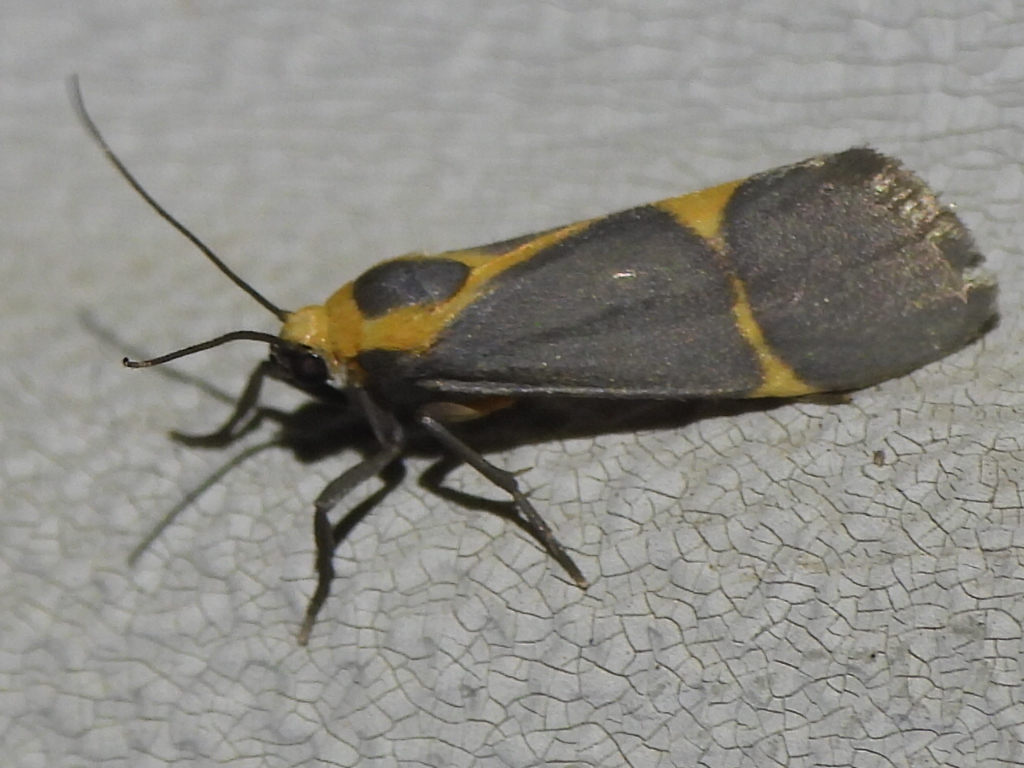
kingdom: Animalia
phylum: Arthropoda
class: Insecta
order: Lepidoptera
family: Erebidae
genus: Cisthene
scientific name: Cisthene tenuifascia
